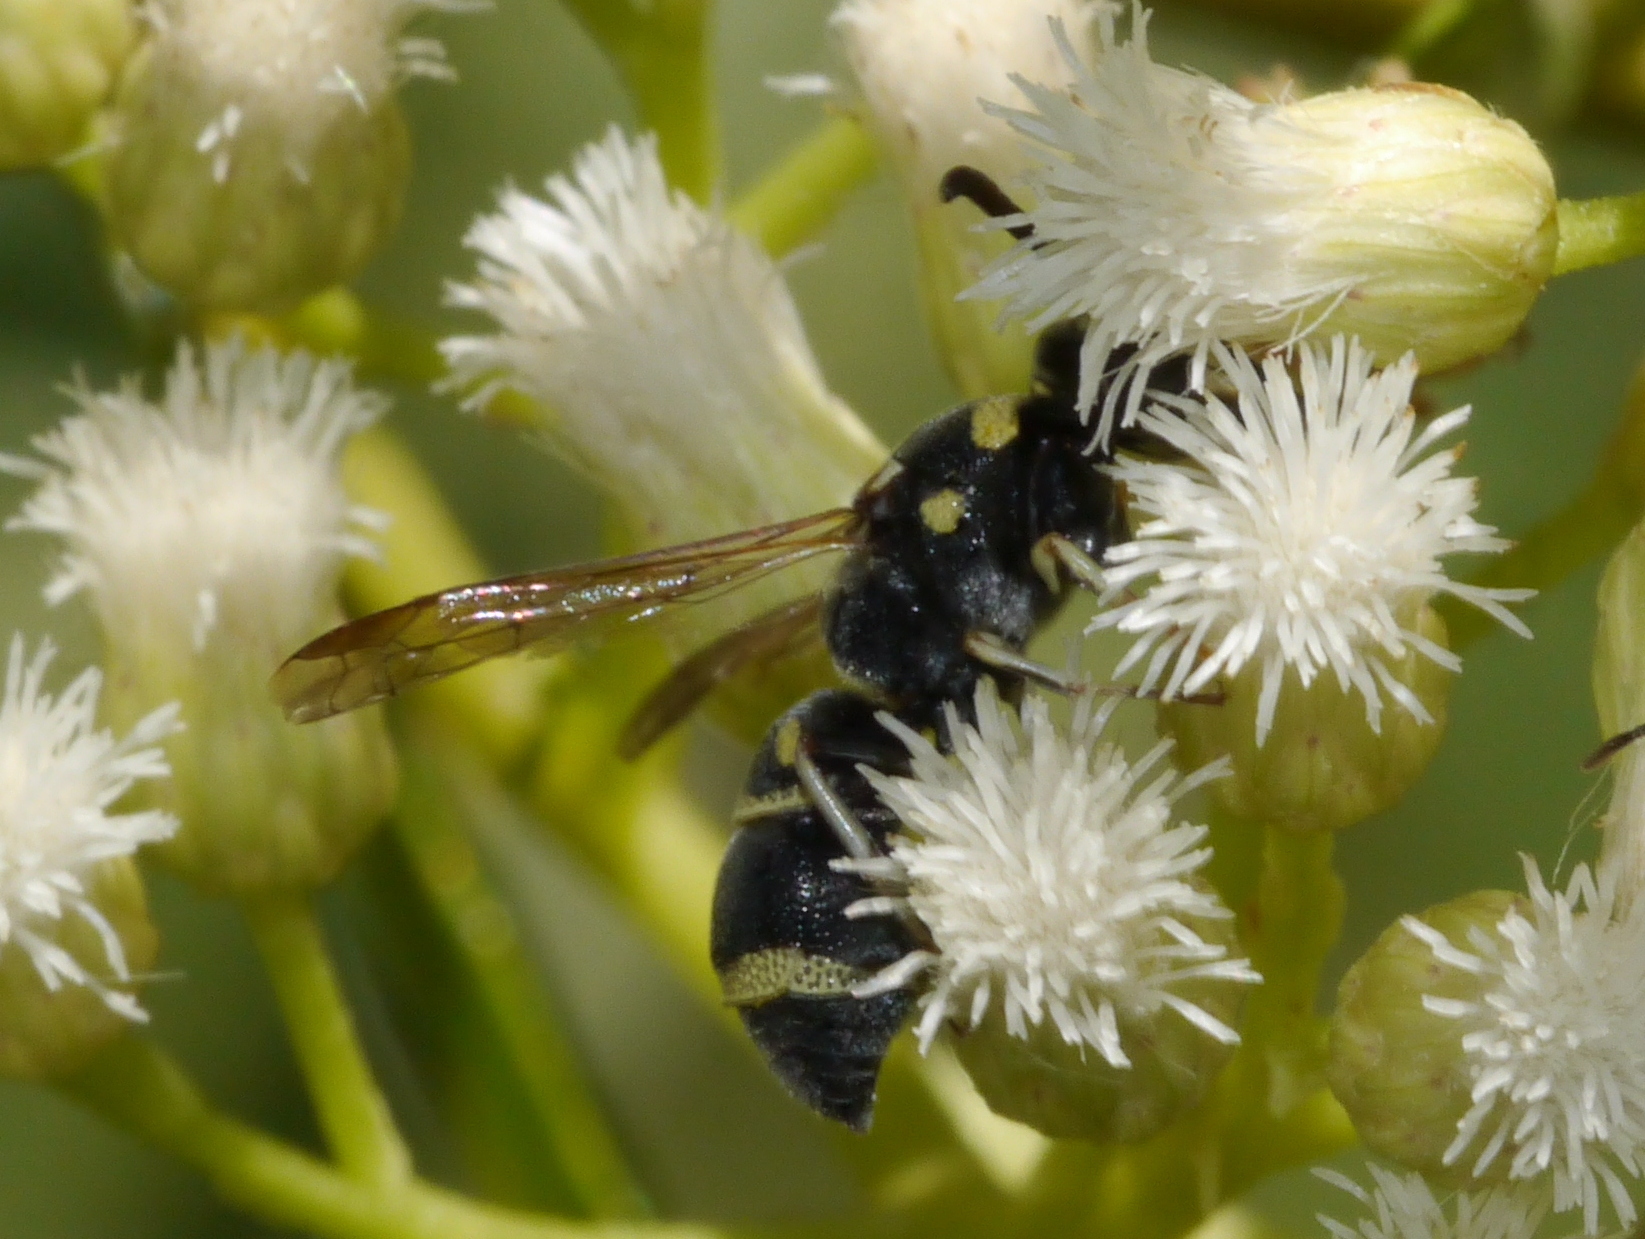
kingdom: Animalia
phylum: Arthropoda
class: Insecta
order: Hymenoptera
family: Eumenidae
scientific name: Eumenidae
